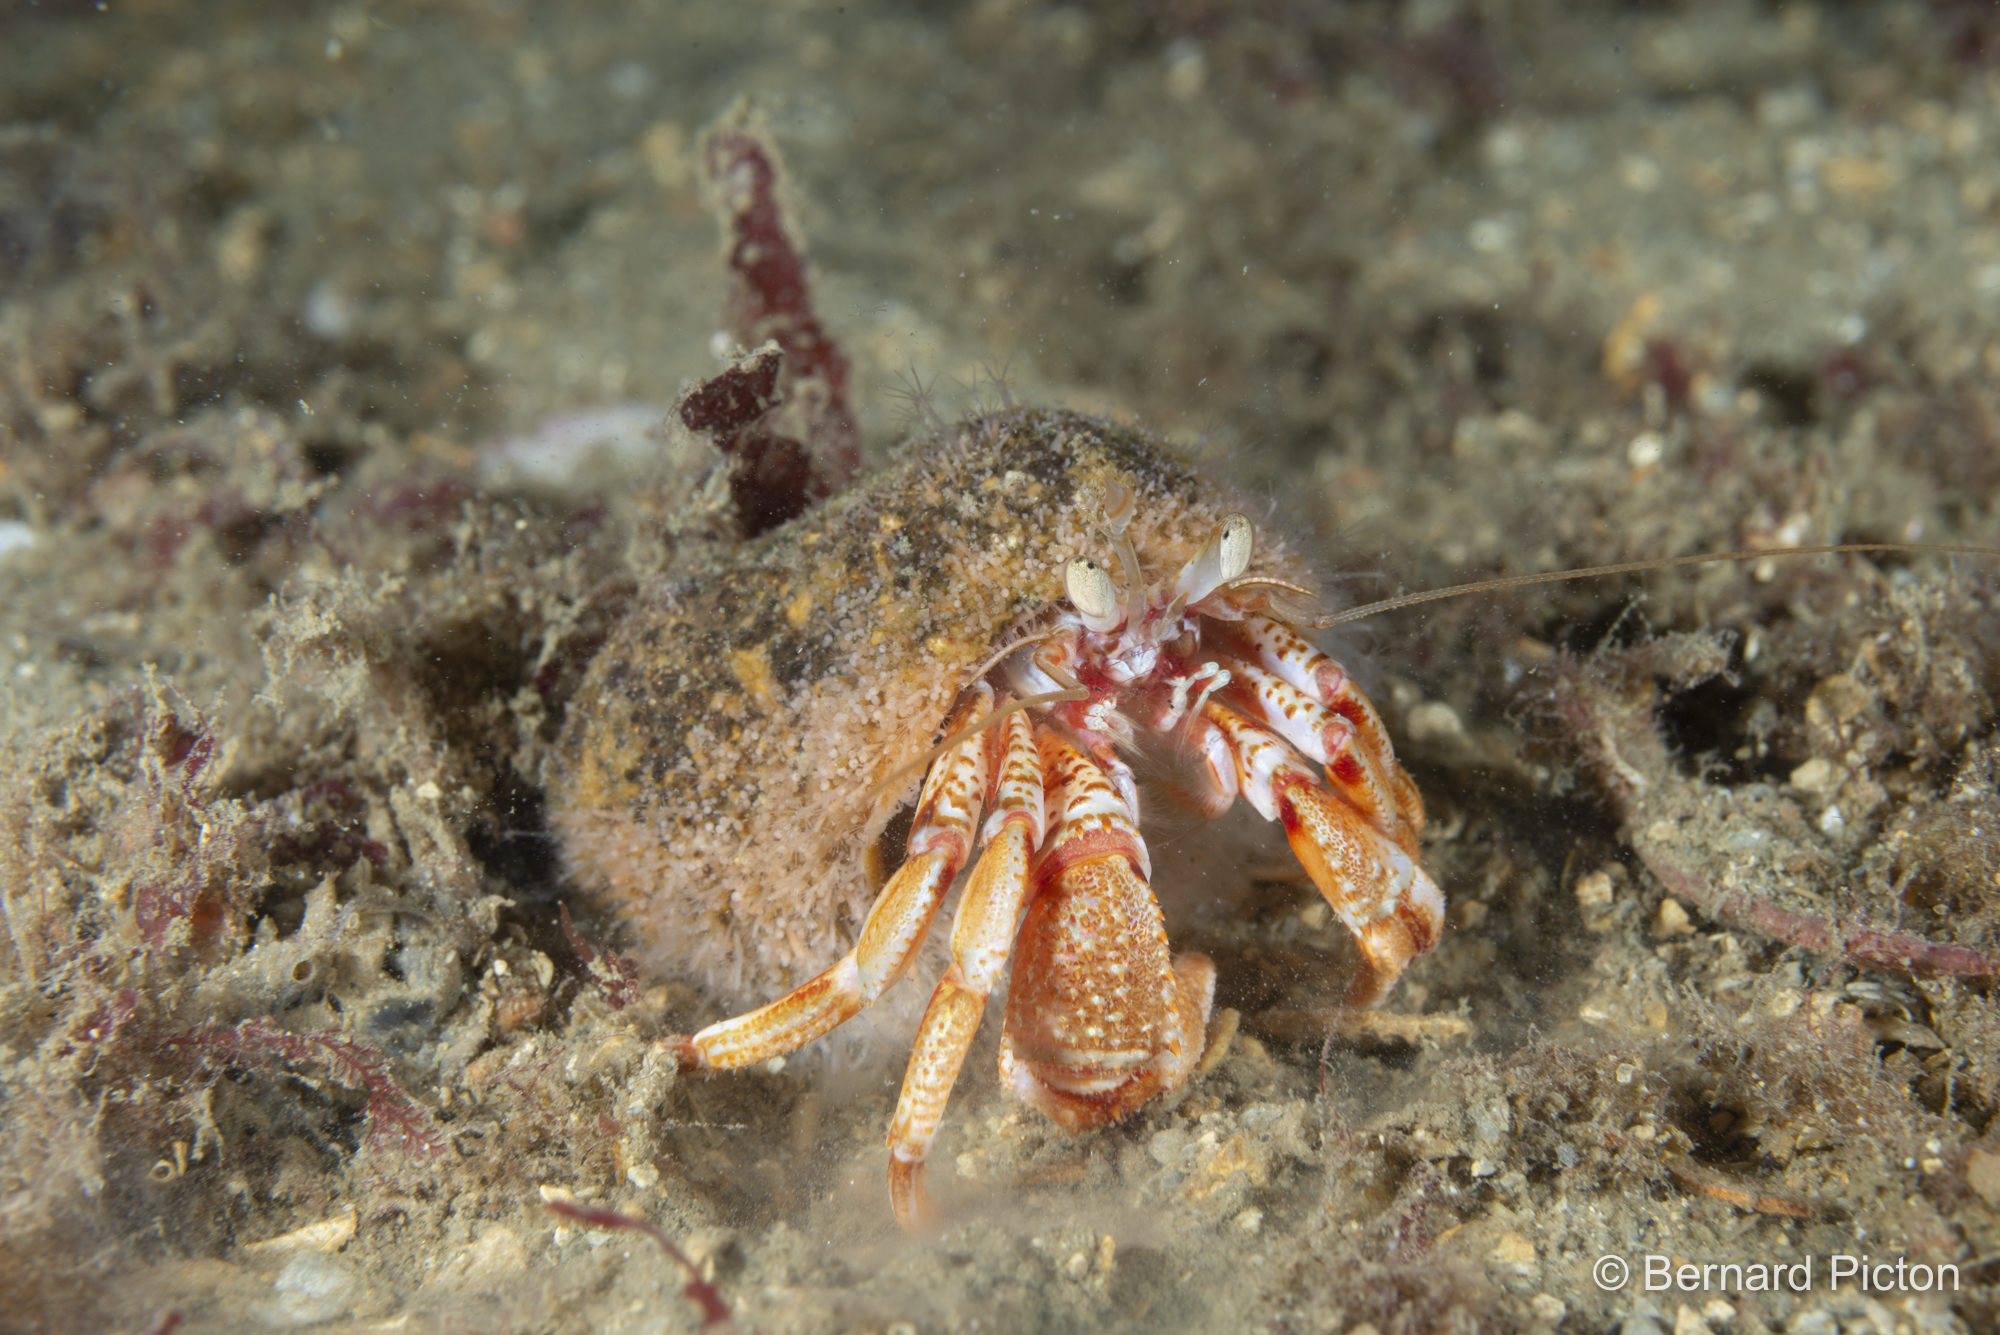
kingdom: Animalia
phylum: Cnidaria
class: Hydrozoa
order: Anthoathecata
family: Hydractiniidae
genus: Hydractinia
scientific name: Hydractinia echinata
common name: Rough hydroid
